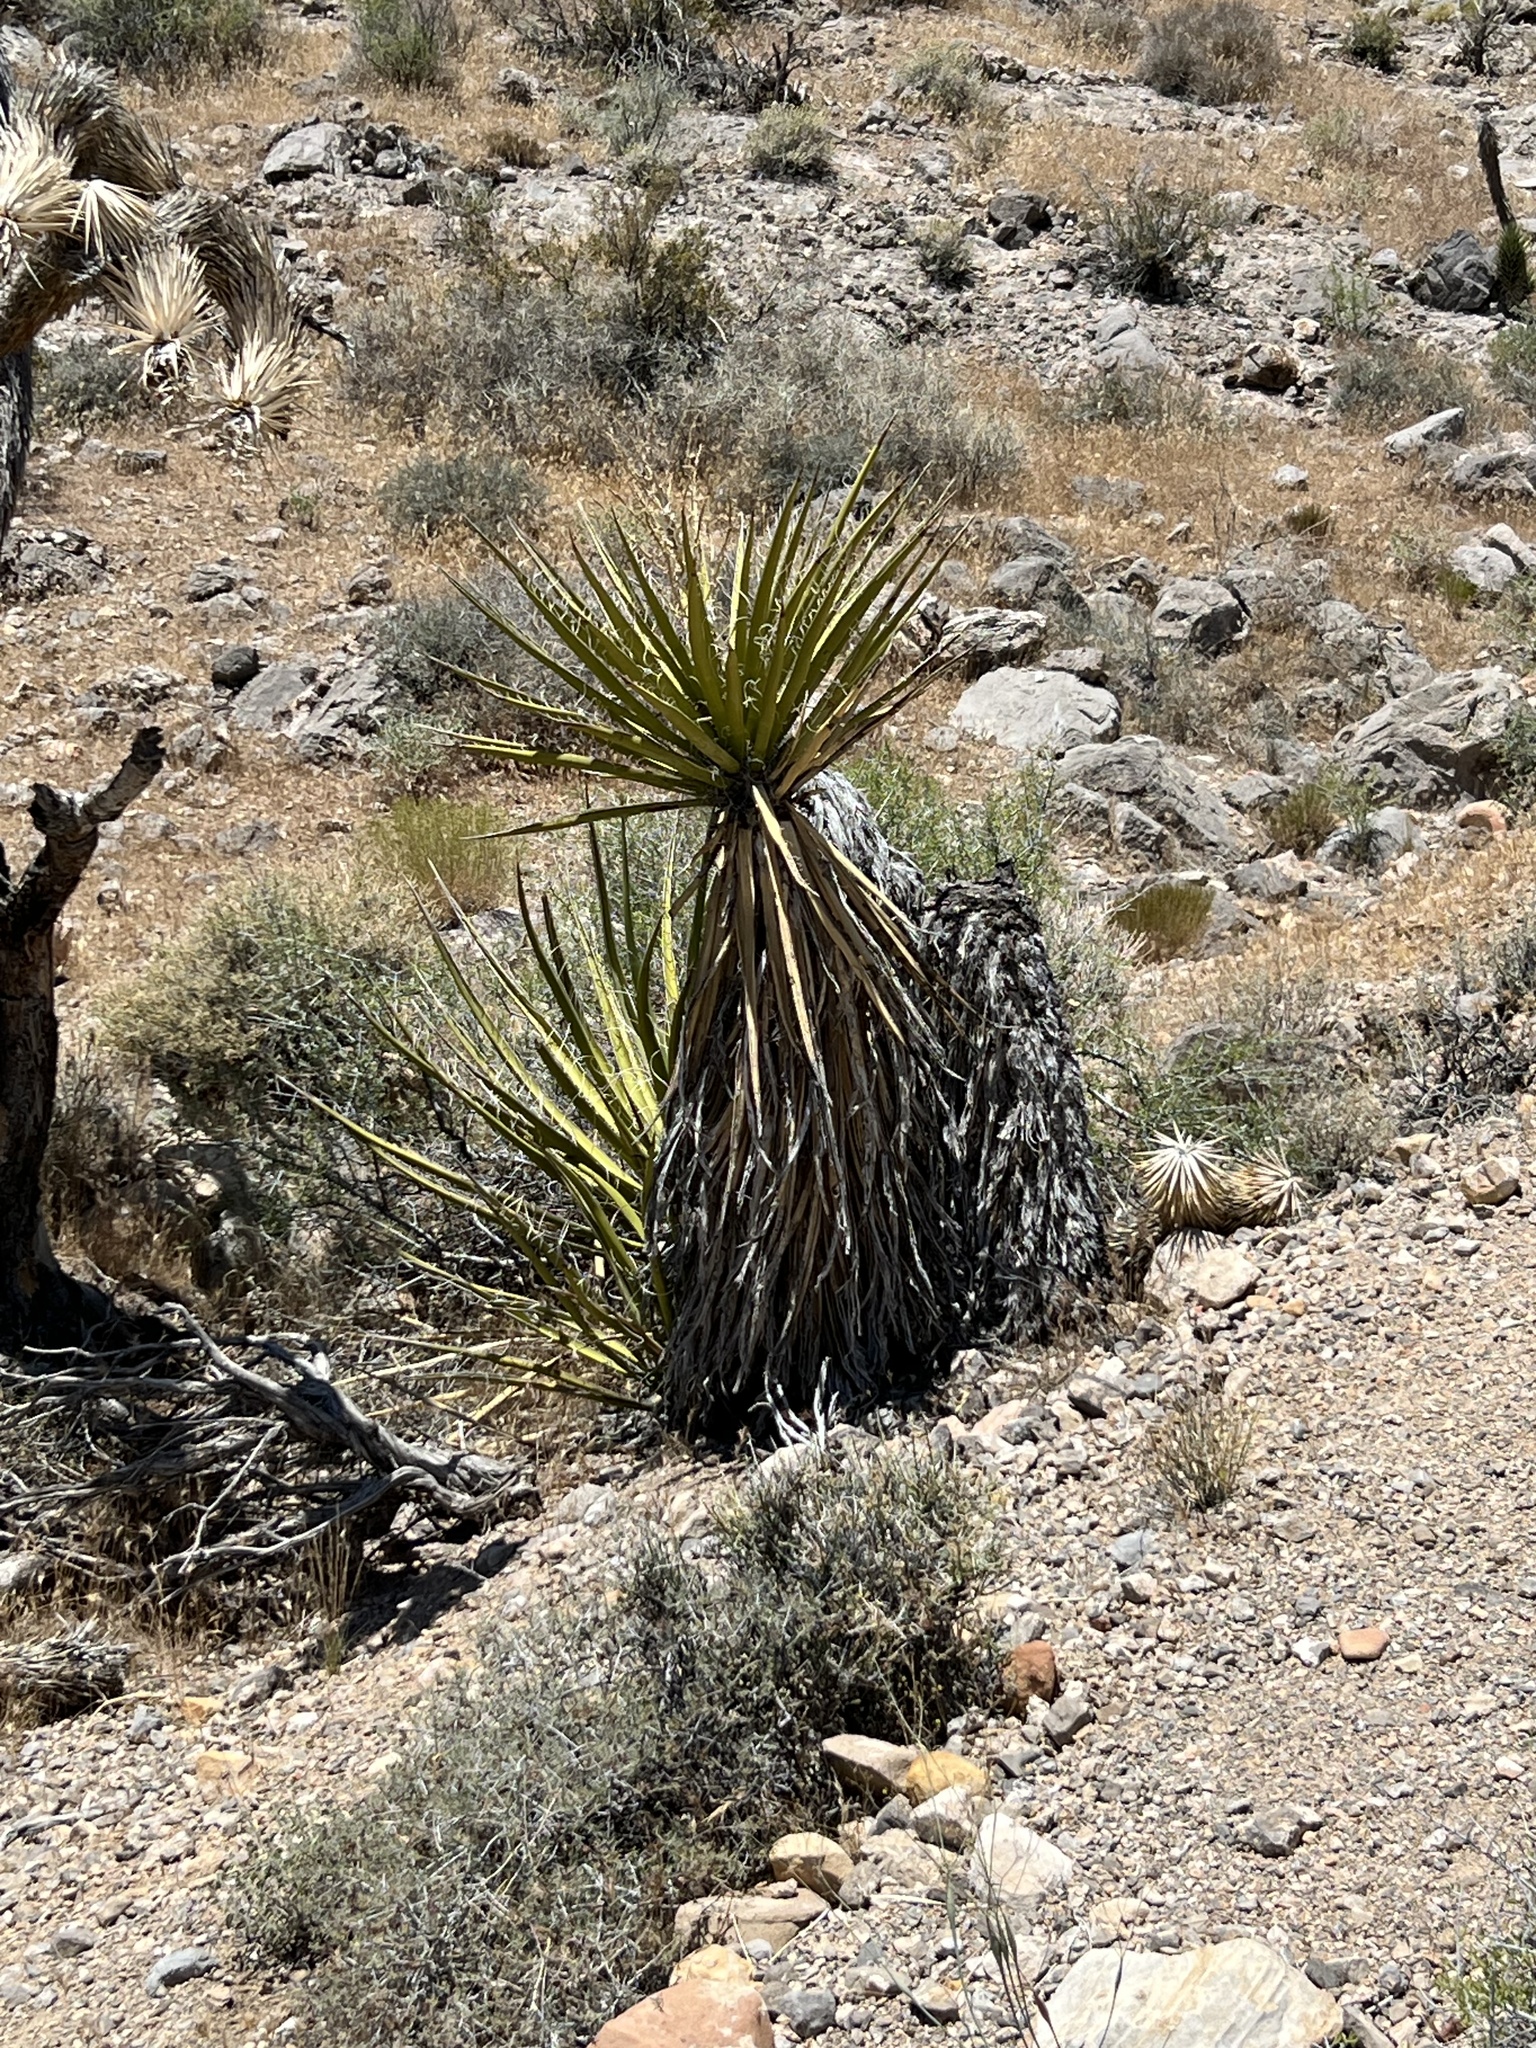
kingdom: Plantae
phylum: Tracheophyta
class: Liliopsida
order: Asparagales
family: Asparagaceae
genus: Yucca
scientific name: Yucca schidigera
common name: Mojave yucca
